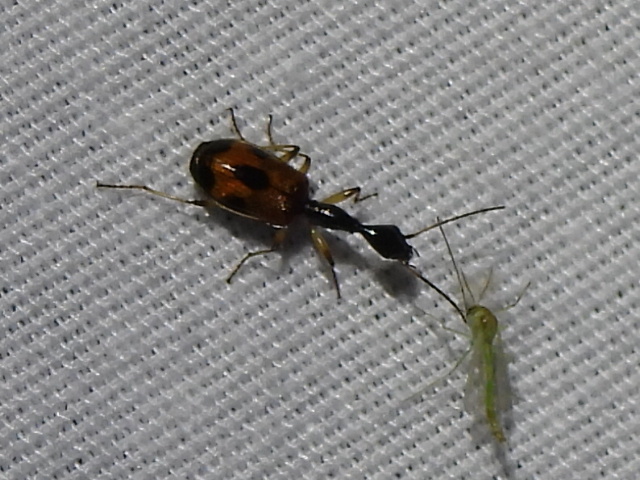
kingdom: Animalia
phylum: Arthropoda
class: Insecta
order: Coleoptera
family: Carabidae
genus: Colliuris
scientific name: Colliuris pensylvanica
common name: Long-necked ground beetle
